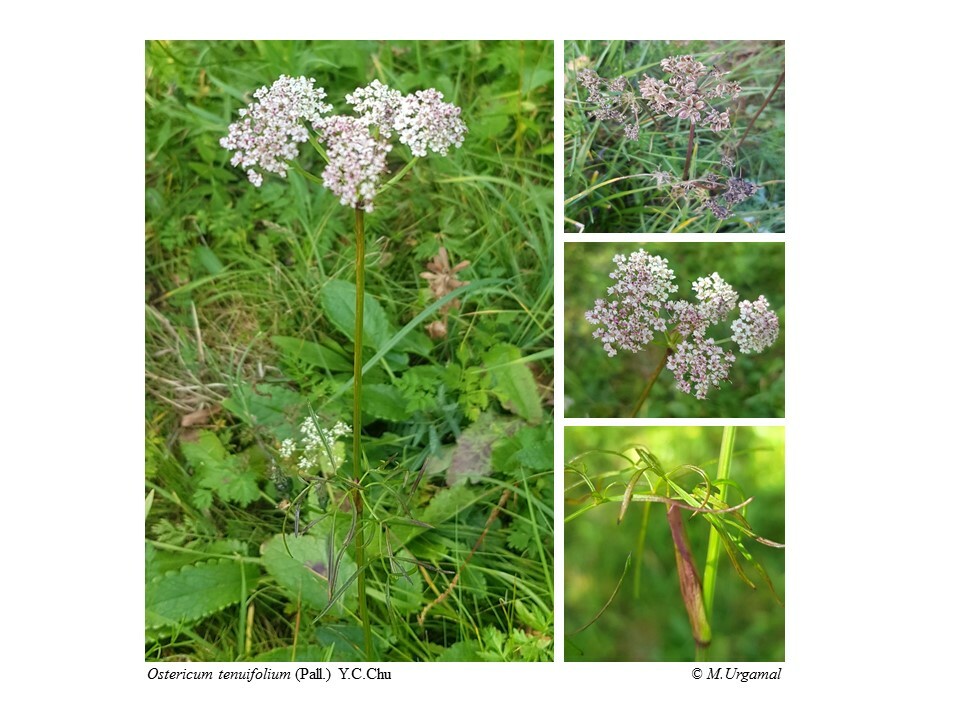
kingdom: Plantae
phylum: Tracheophyta
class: Magnoliopsida
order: Apiales
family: Apiaceae
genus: Ostericum
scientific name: Ostericum tenuifolium
